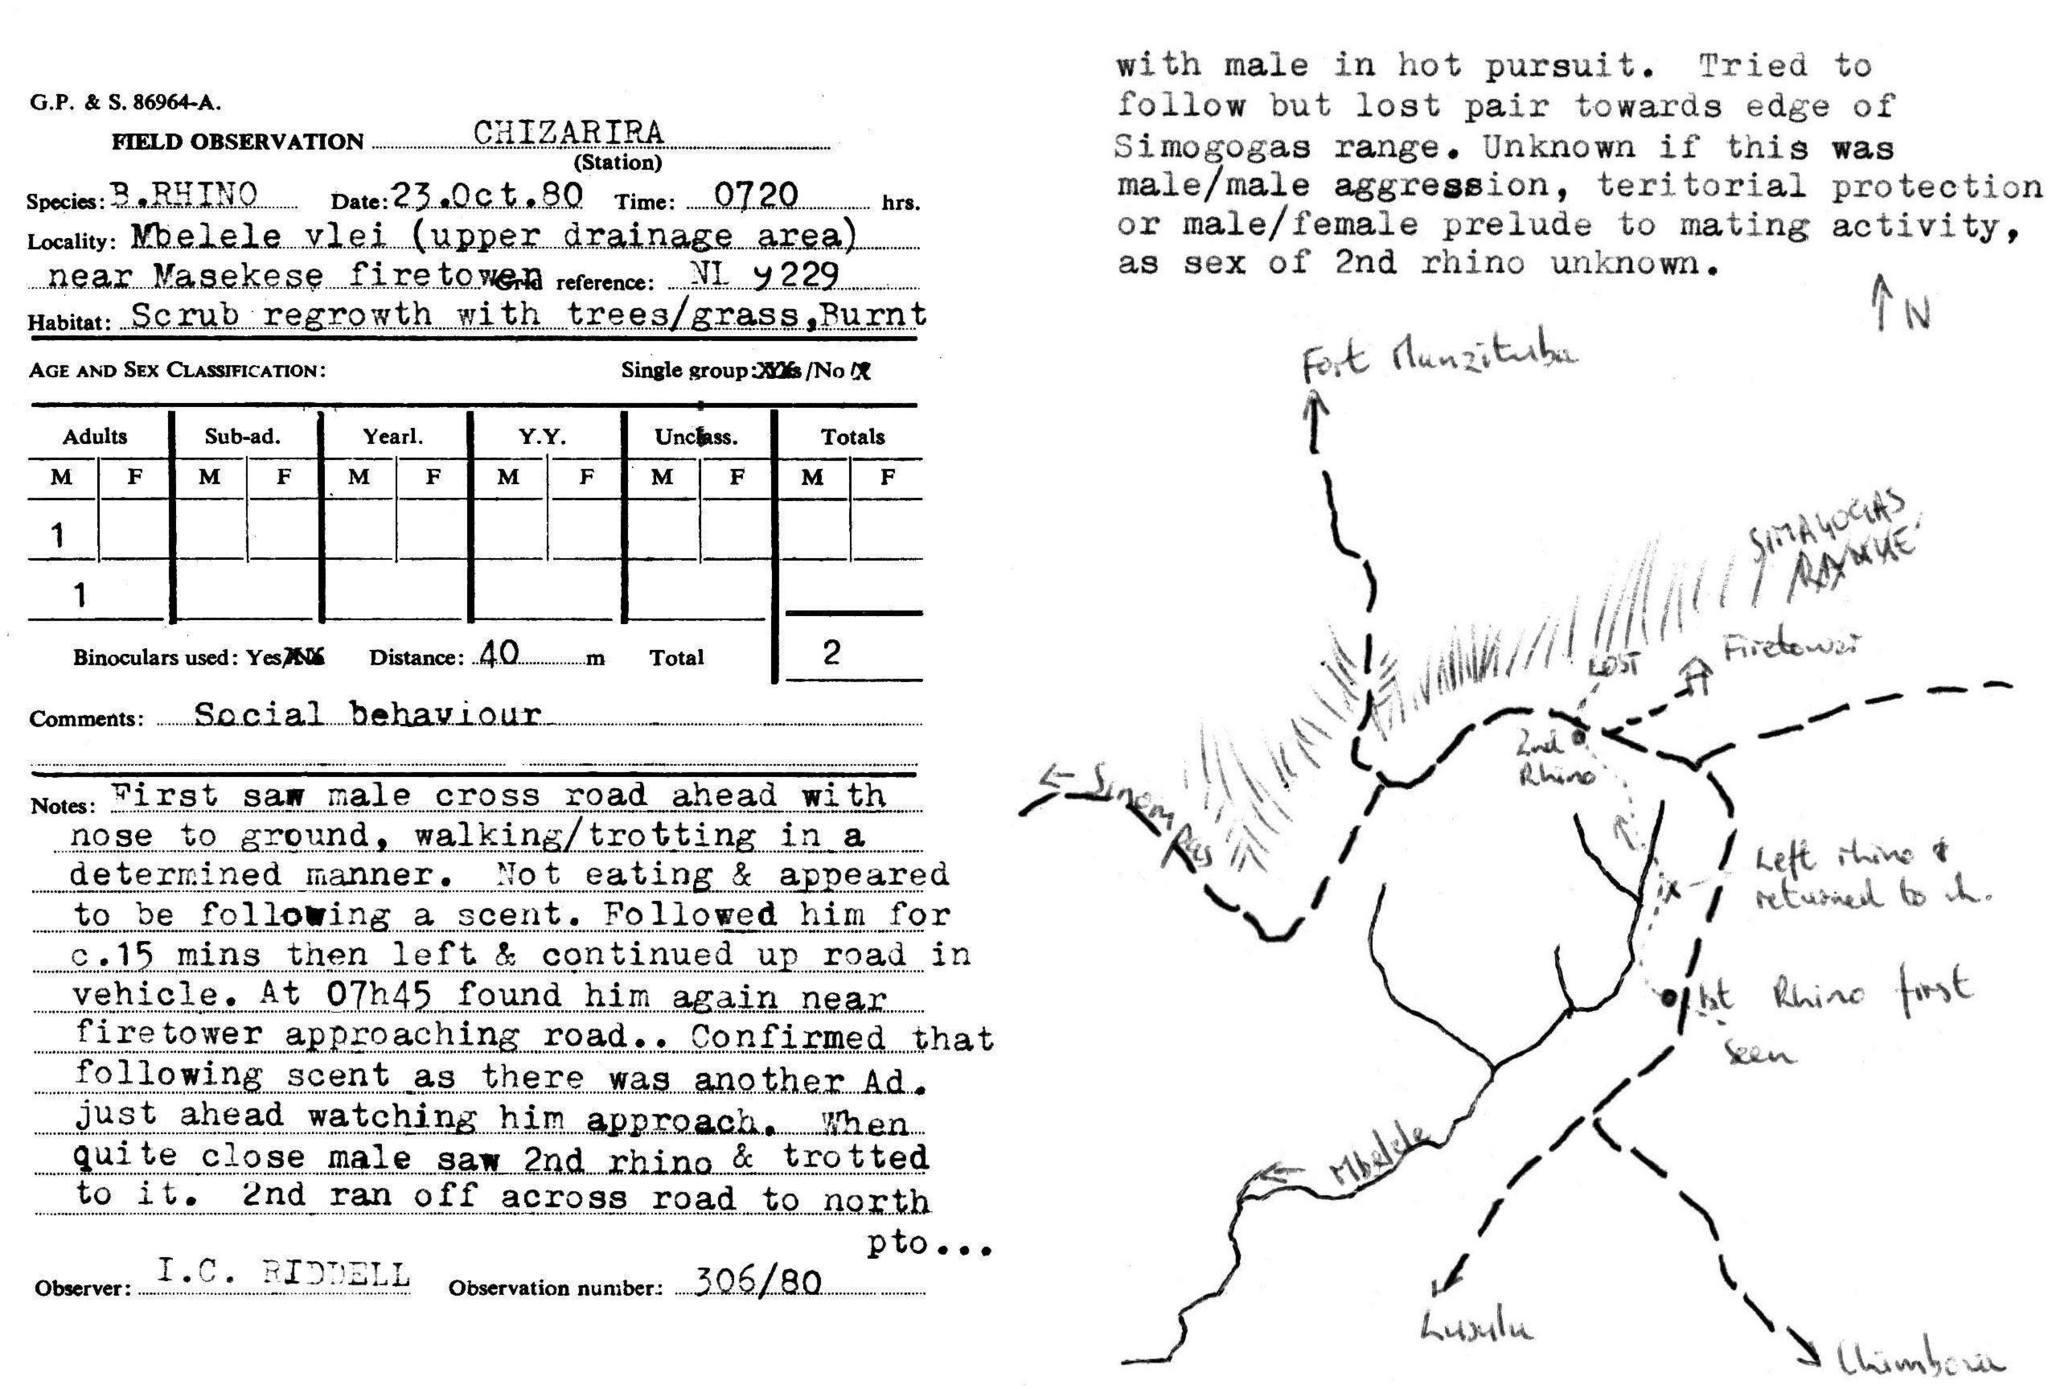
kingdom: Animalia
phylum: Chordata
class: Mammalia
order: Perissodactyla
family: Rhinocerotidae
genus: Diceros
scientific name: Diceros bicornis
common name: Black rhinoceros
